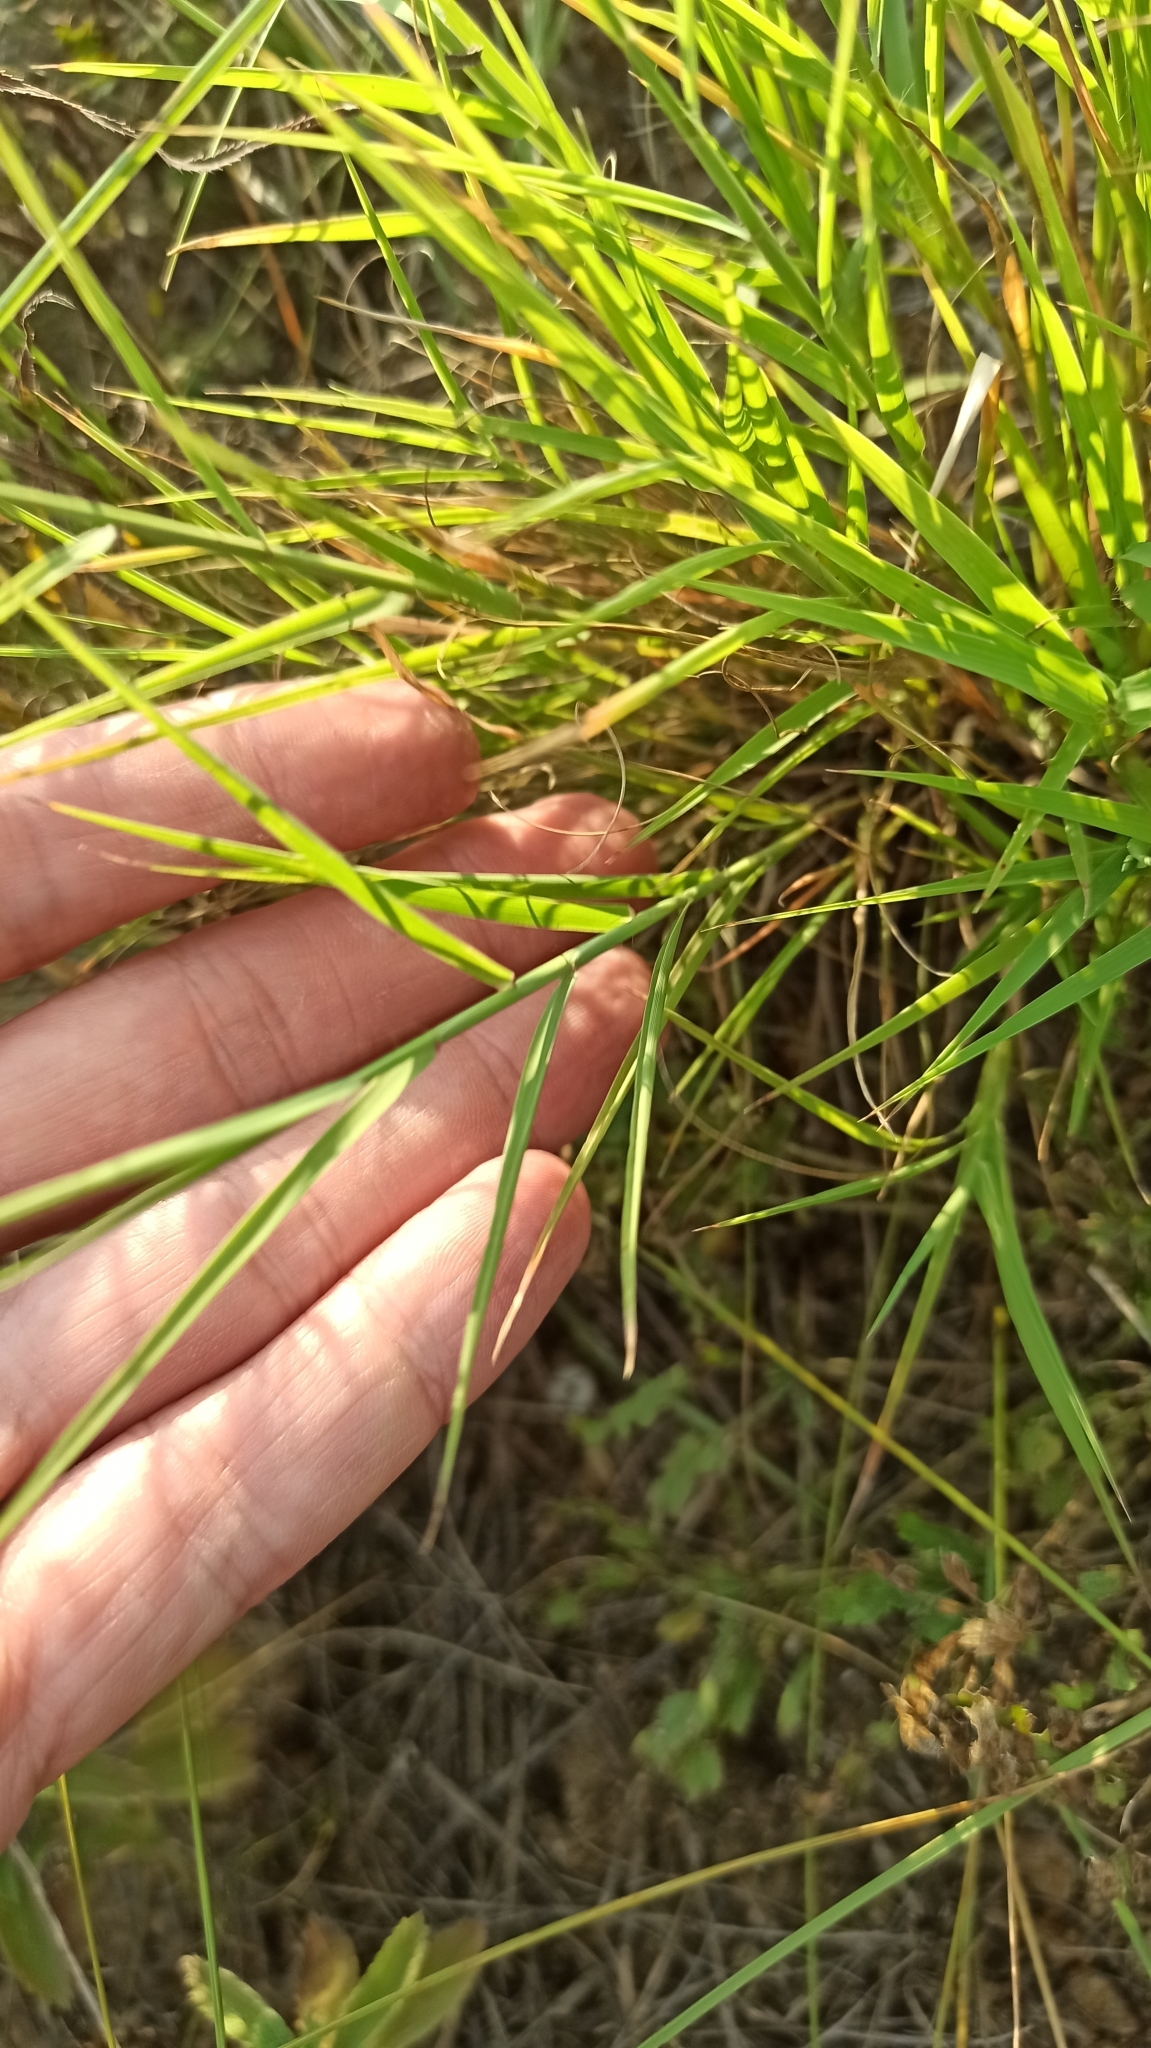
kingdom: Plantae
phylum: Tracheophyta
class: Liliopsida
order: Poales
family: Poaceae
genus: Cleistogenes
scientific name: Cleistogenes serotina
